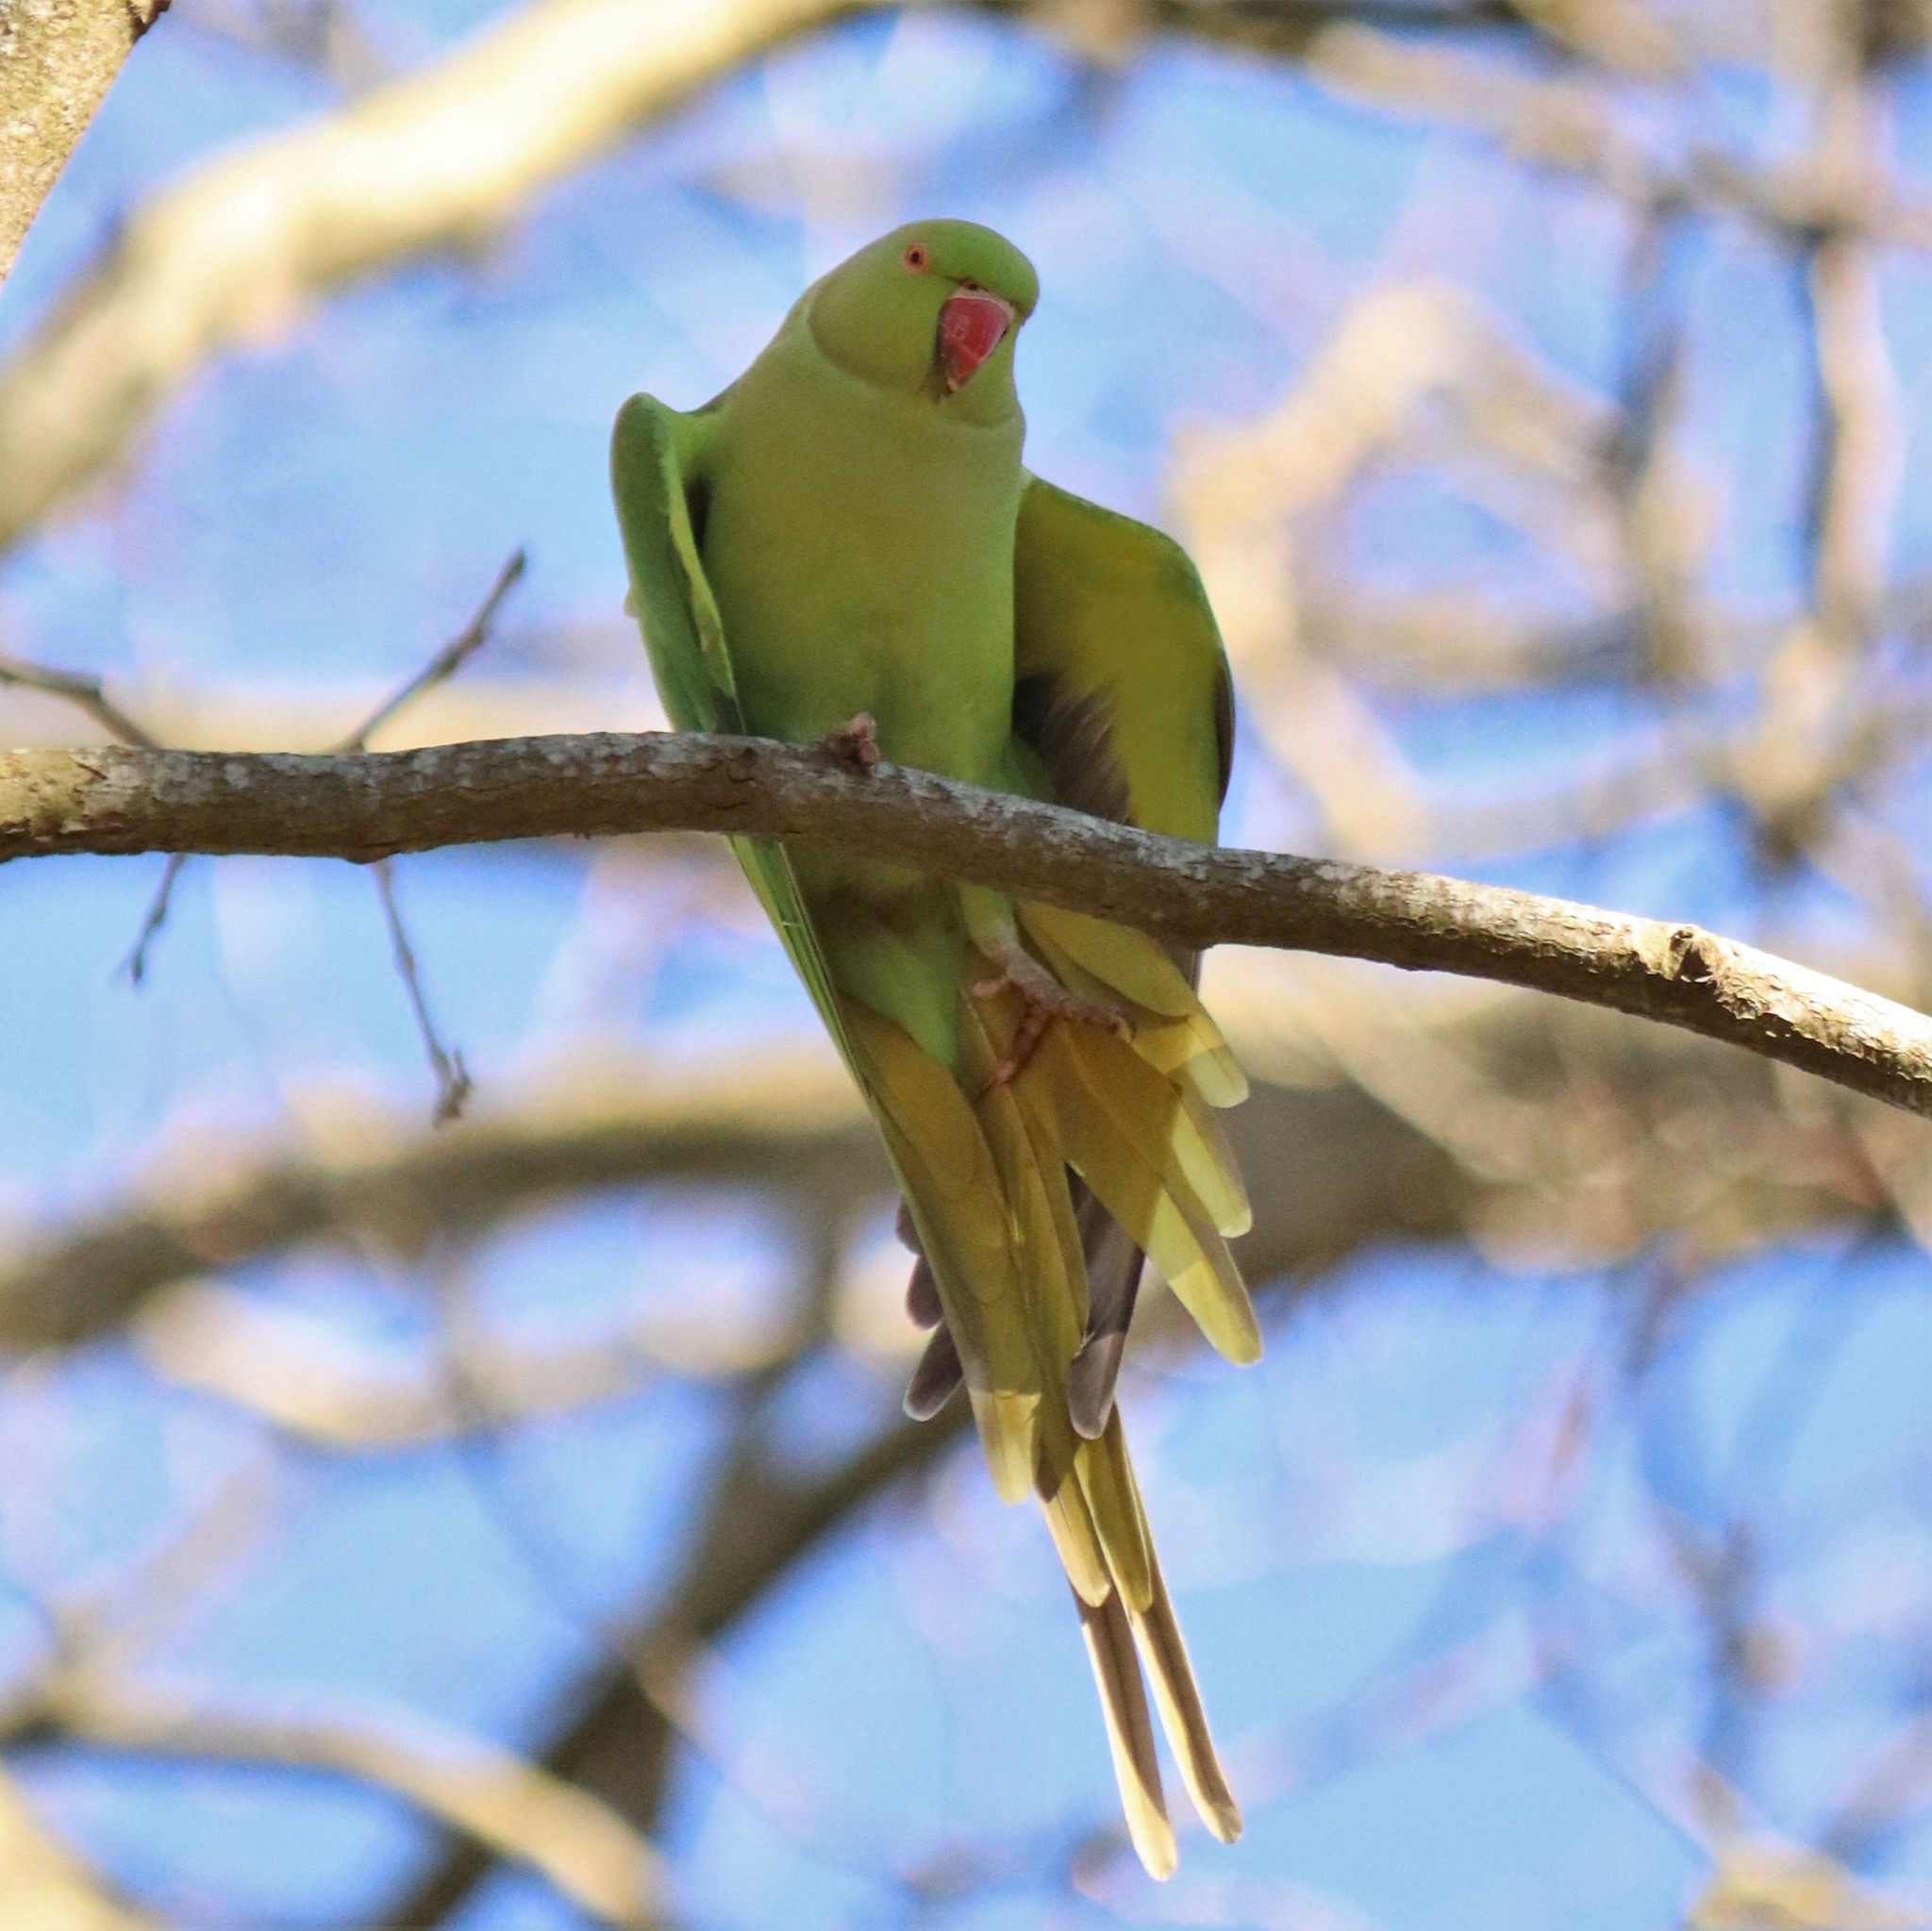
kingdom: Animalia
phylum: Chordata
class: Aves
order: Psittaciformes
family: Psittacidae
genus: Psittacula
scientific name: Psittacula krameri
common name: Rose-ringed parakeet
